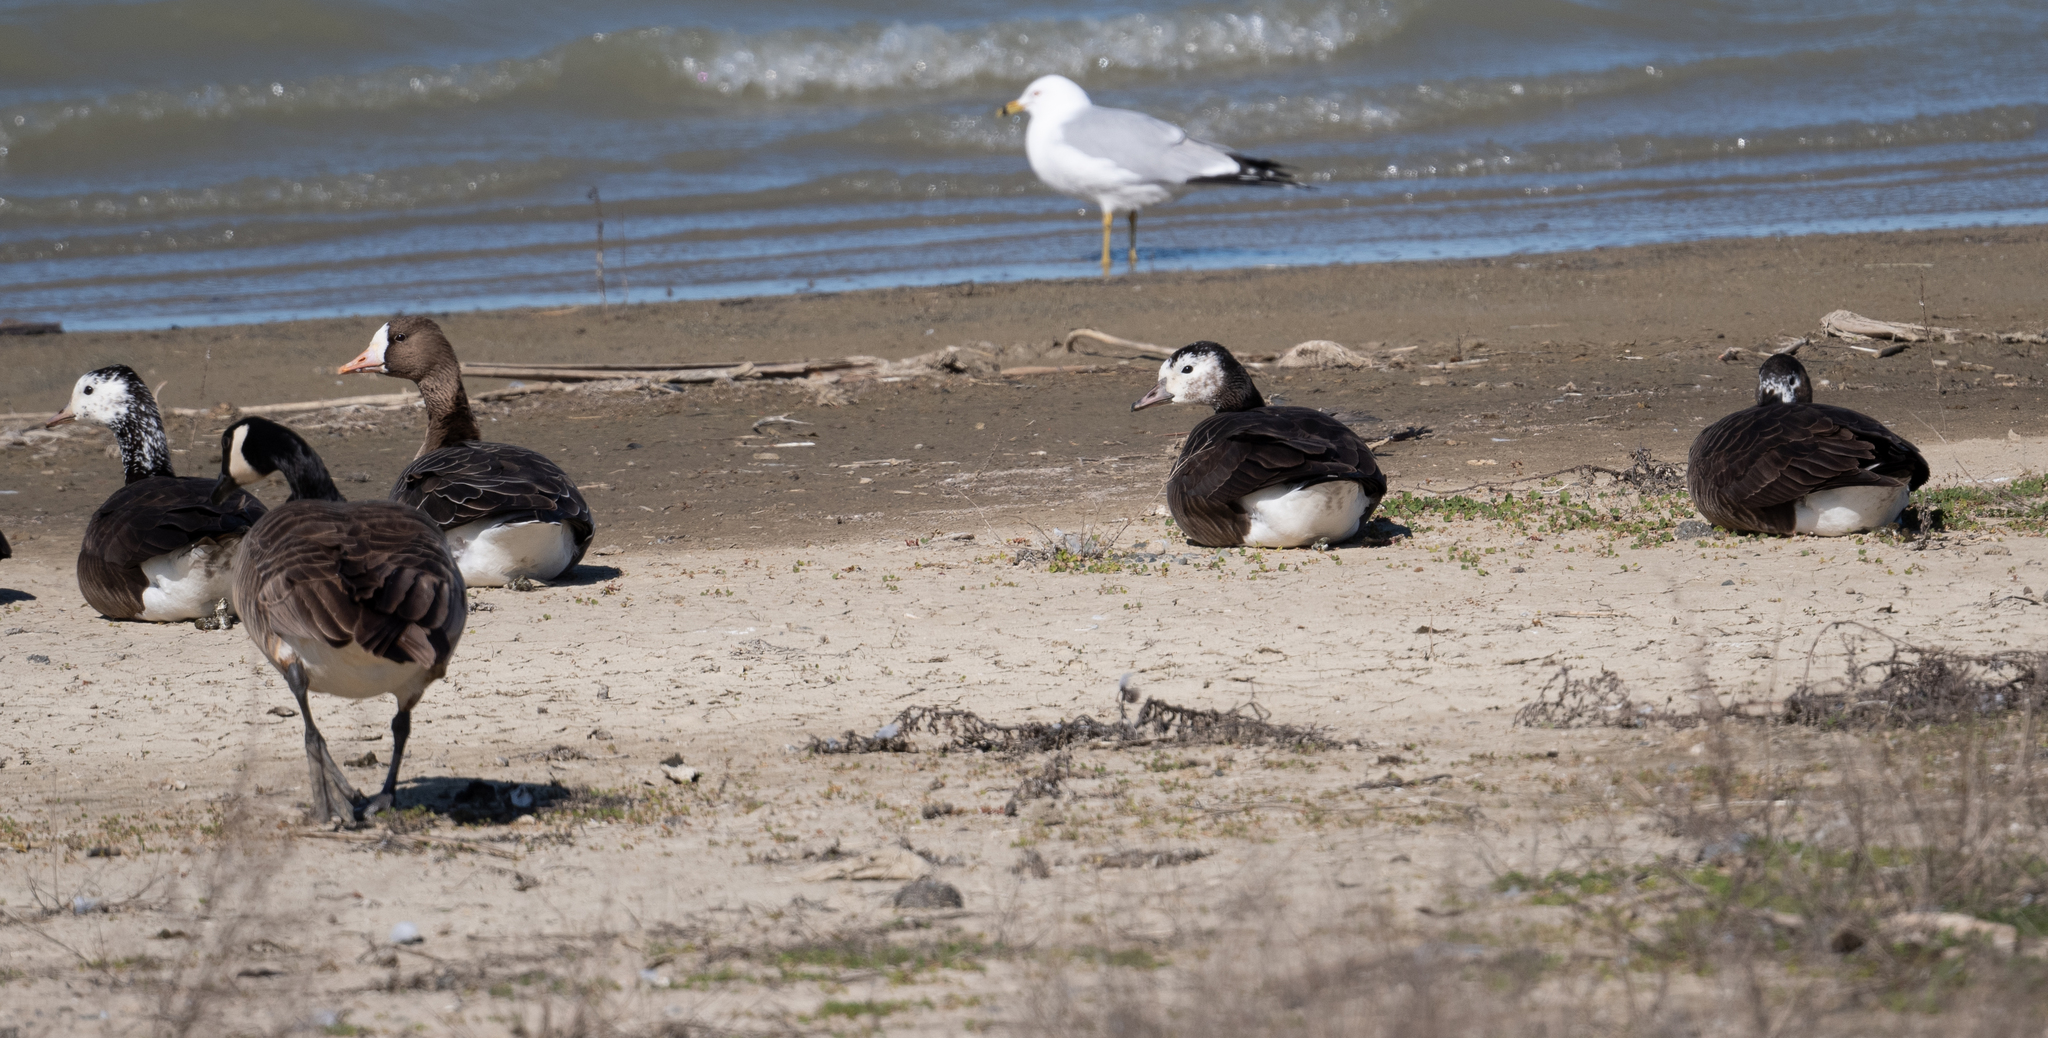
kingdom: Animalia
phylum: Chordata
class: Aves
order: Anseriformes
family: Anatidae
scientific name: Anatidae
